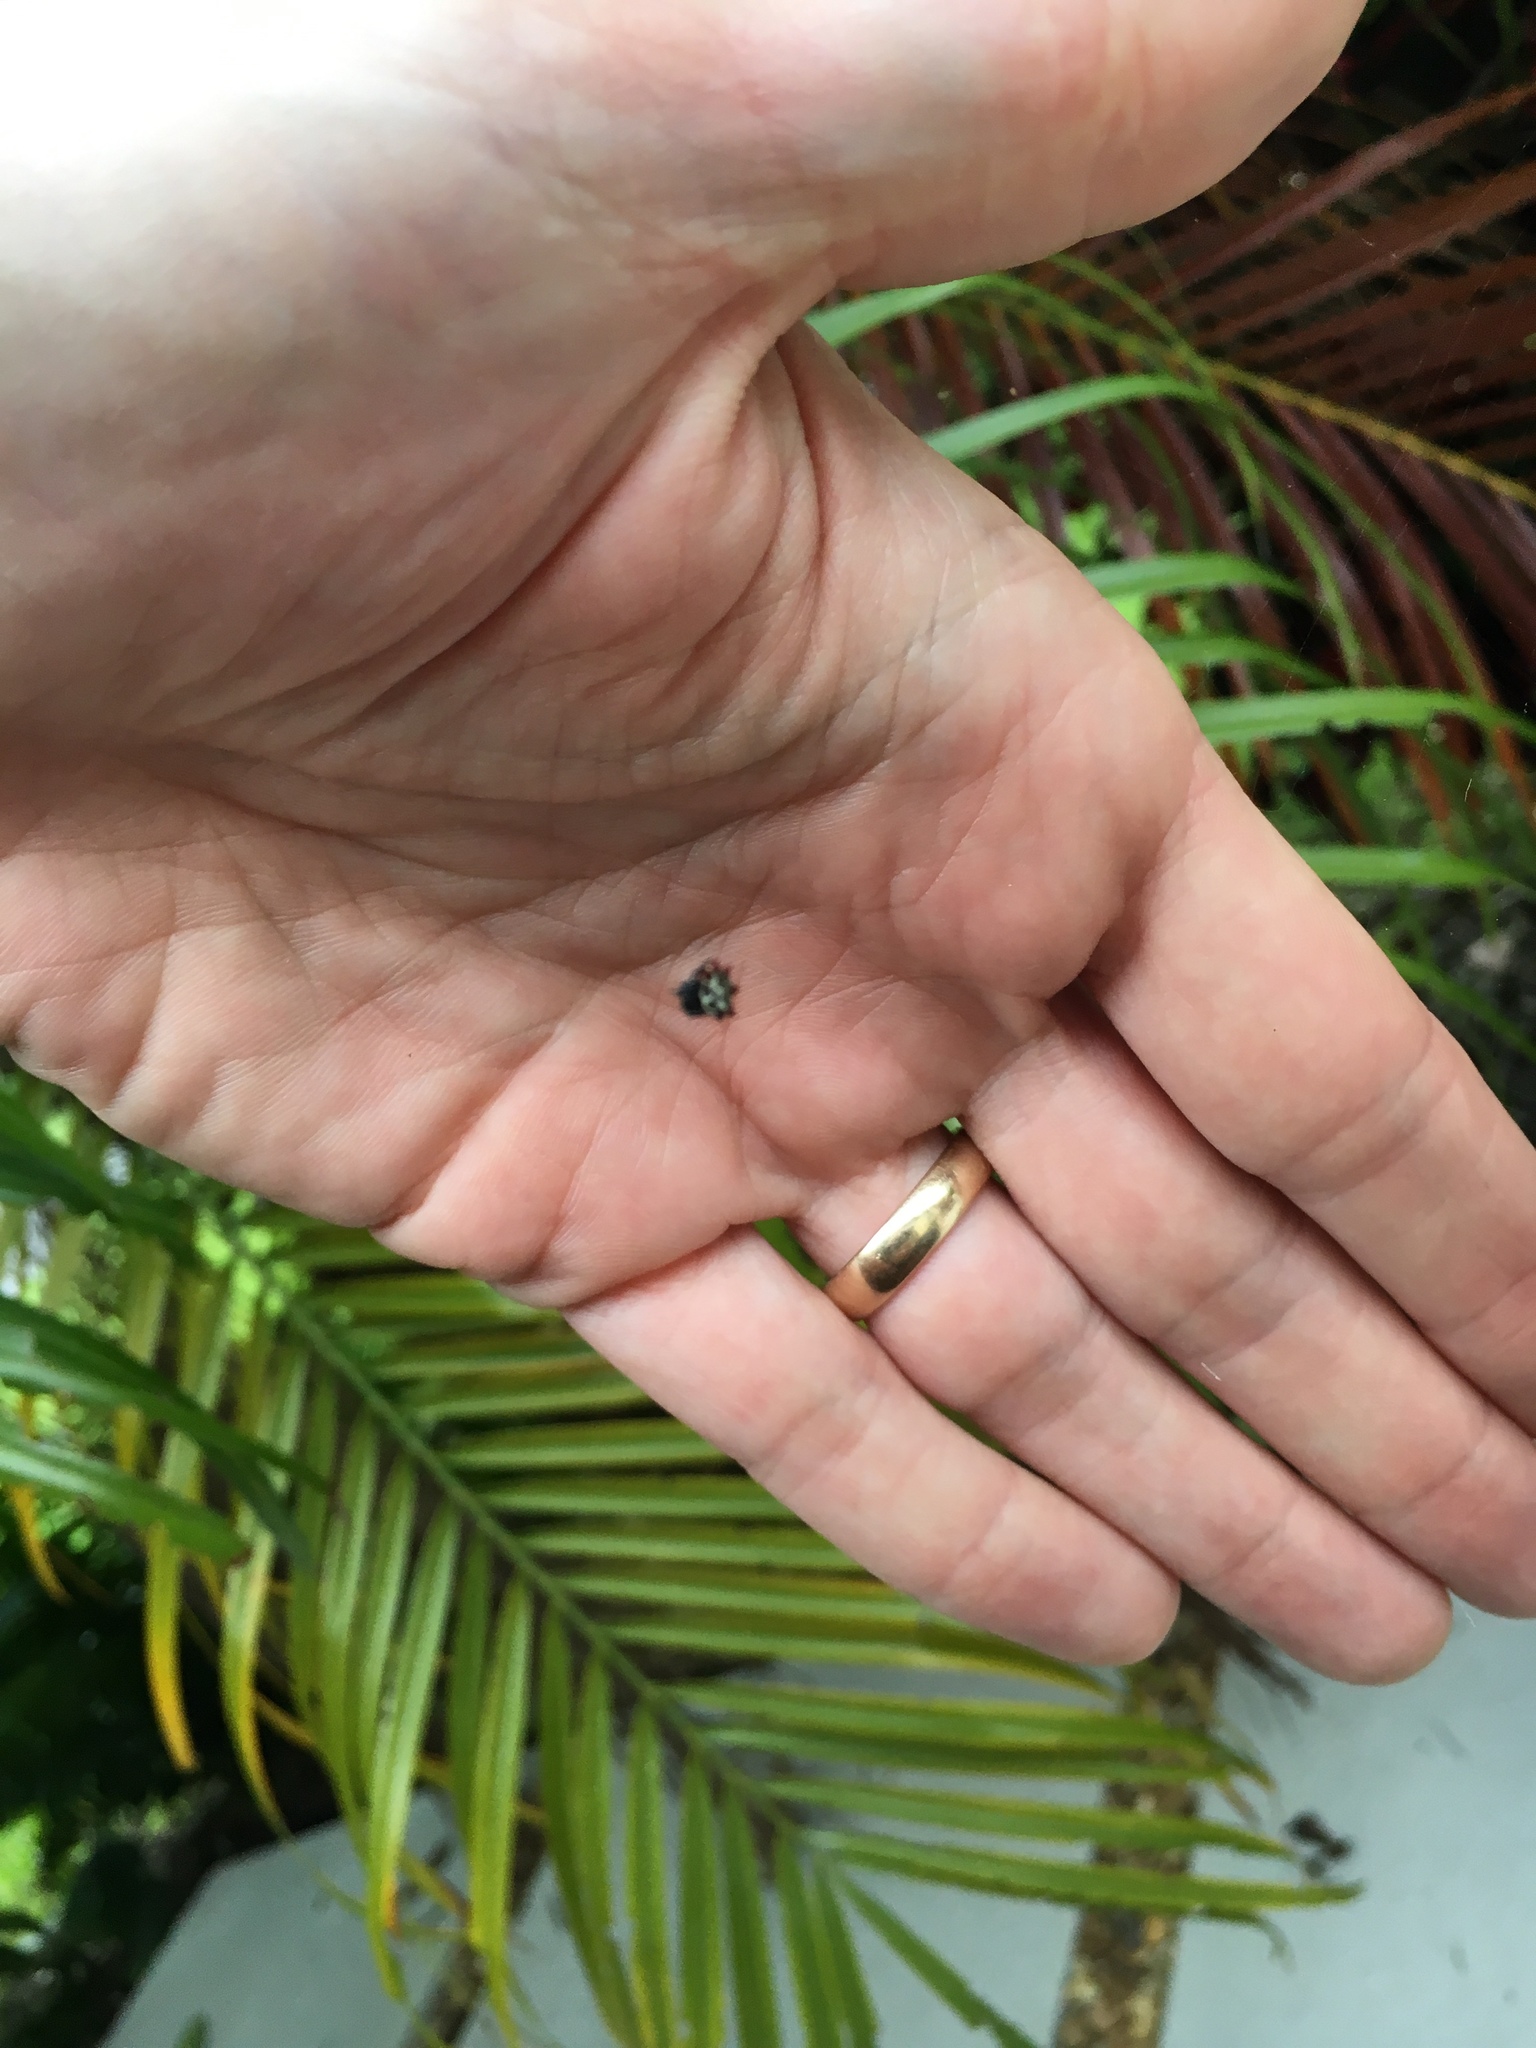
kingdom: Animalia
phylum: Arthropoda
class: Arachnida
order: Araneae
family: Araneidae
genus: Gasteracantha
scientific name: Gasteracantha cancriformis
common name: Orb weavers
